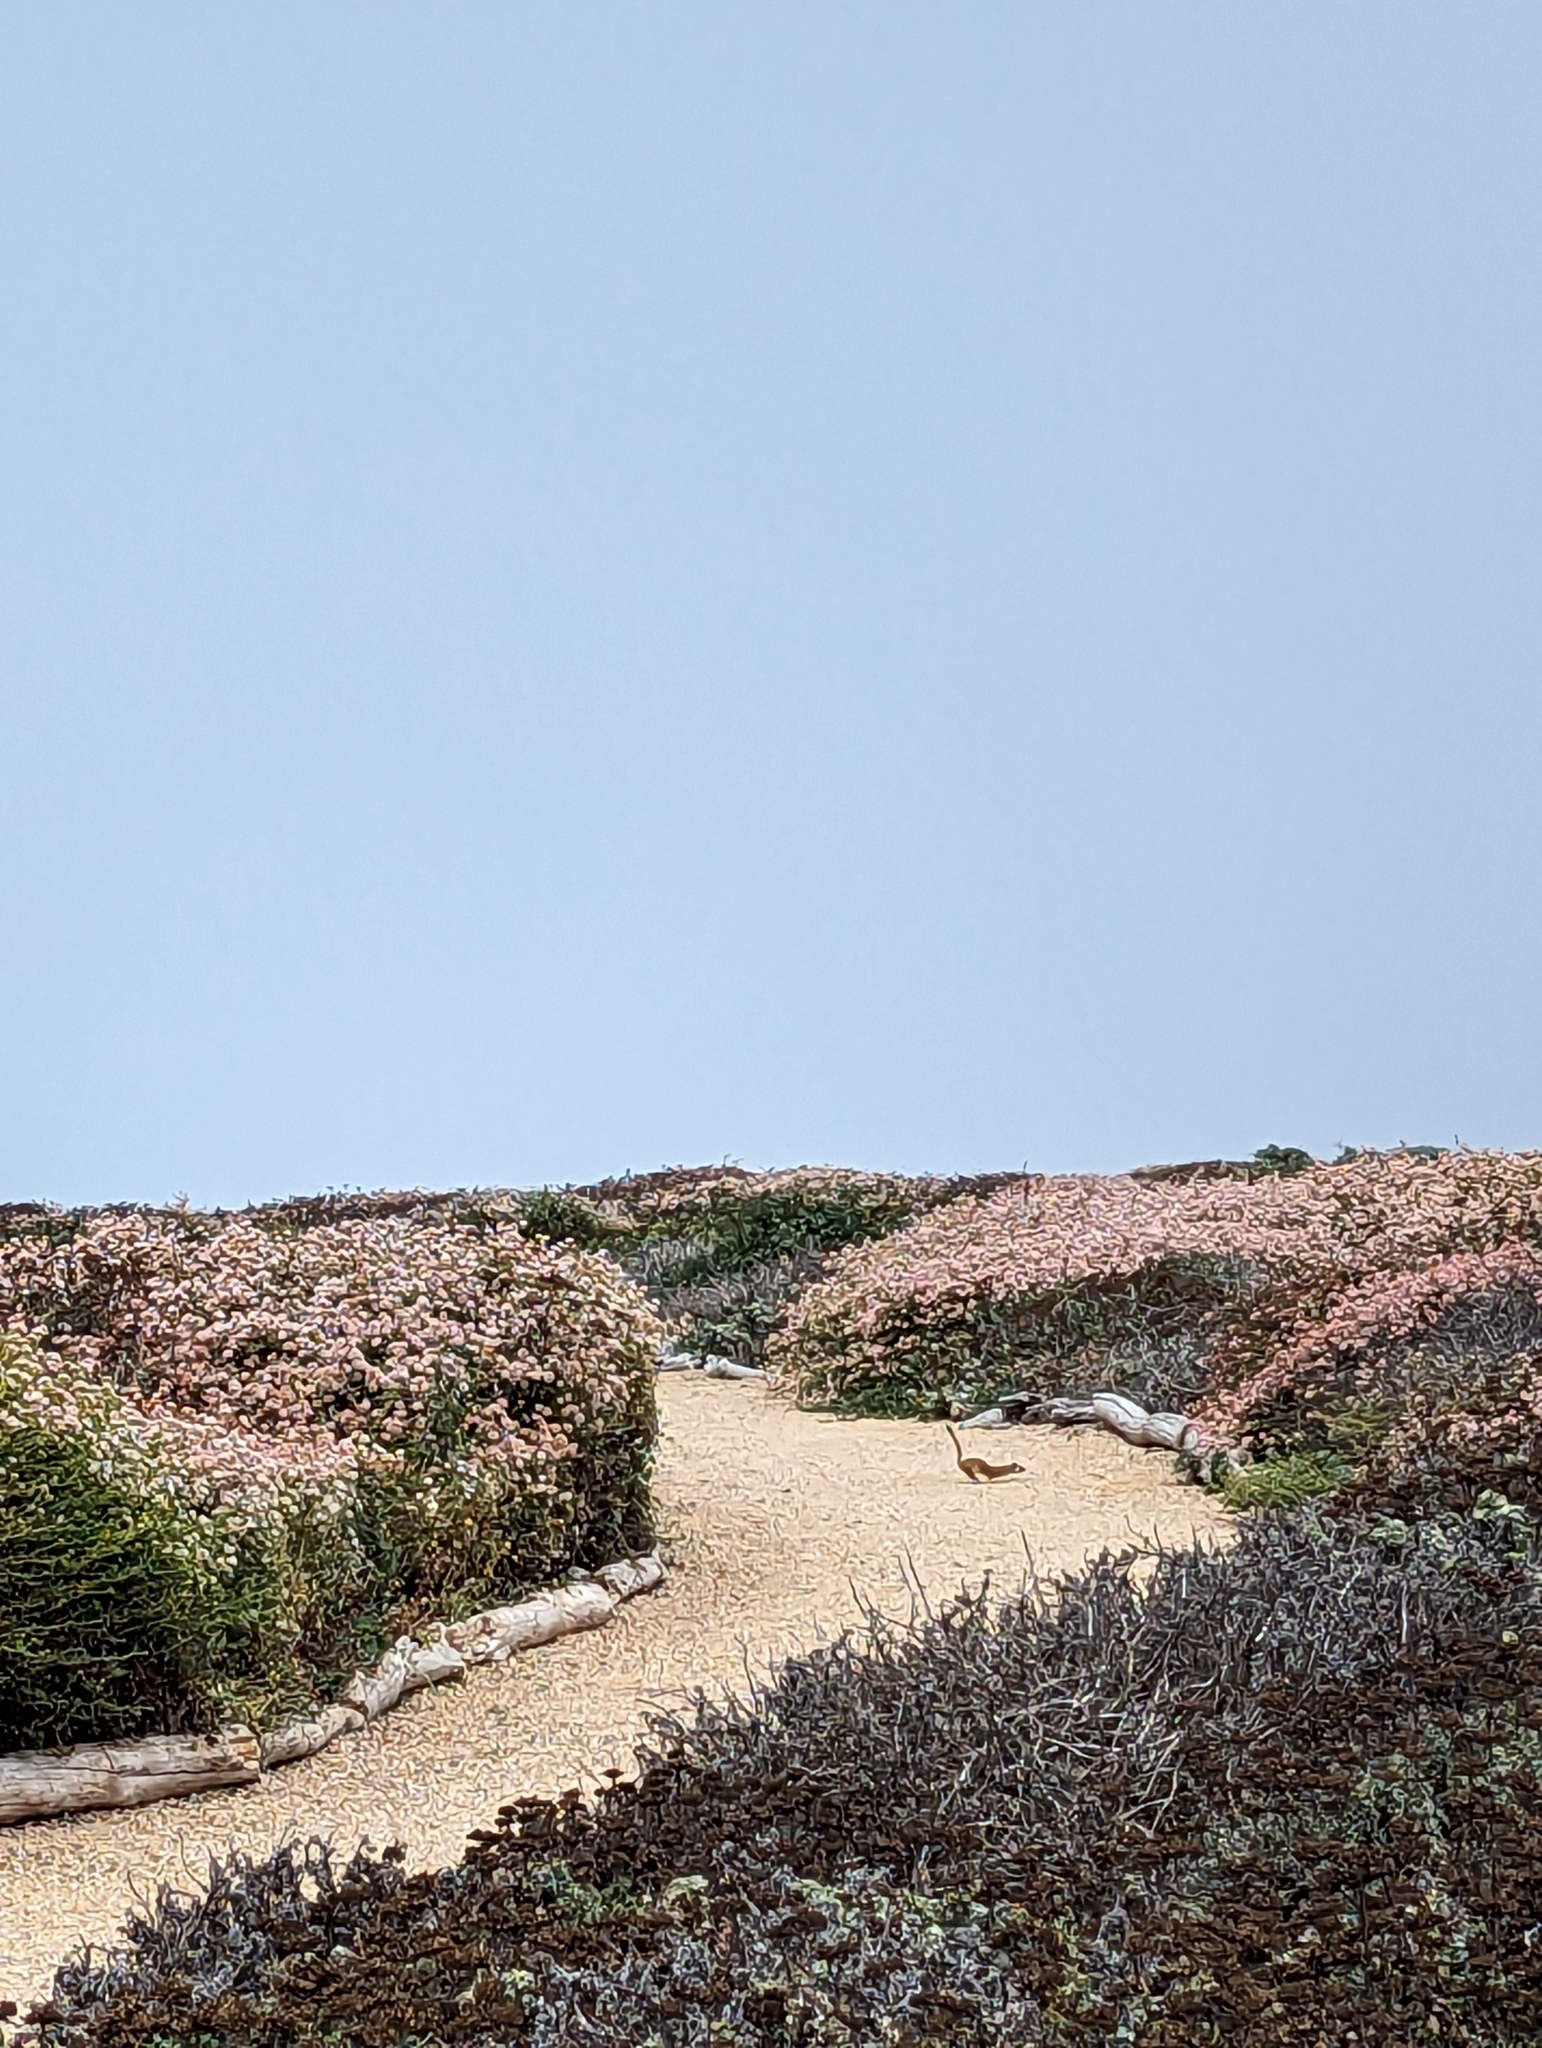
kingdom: Animalia
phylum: Chordata
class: Mammalia
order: Carnivora
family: Mustelidae
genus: Mustela
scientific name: Mustela
